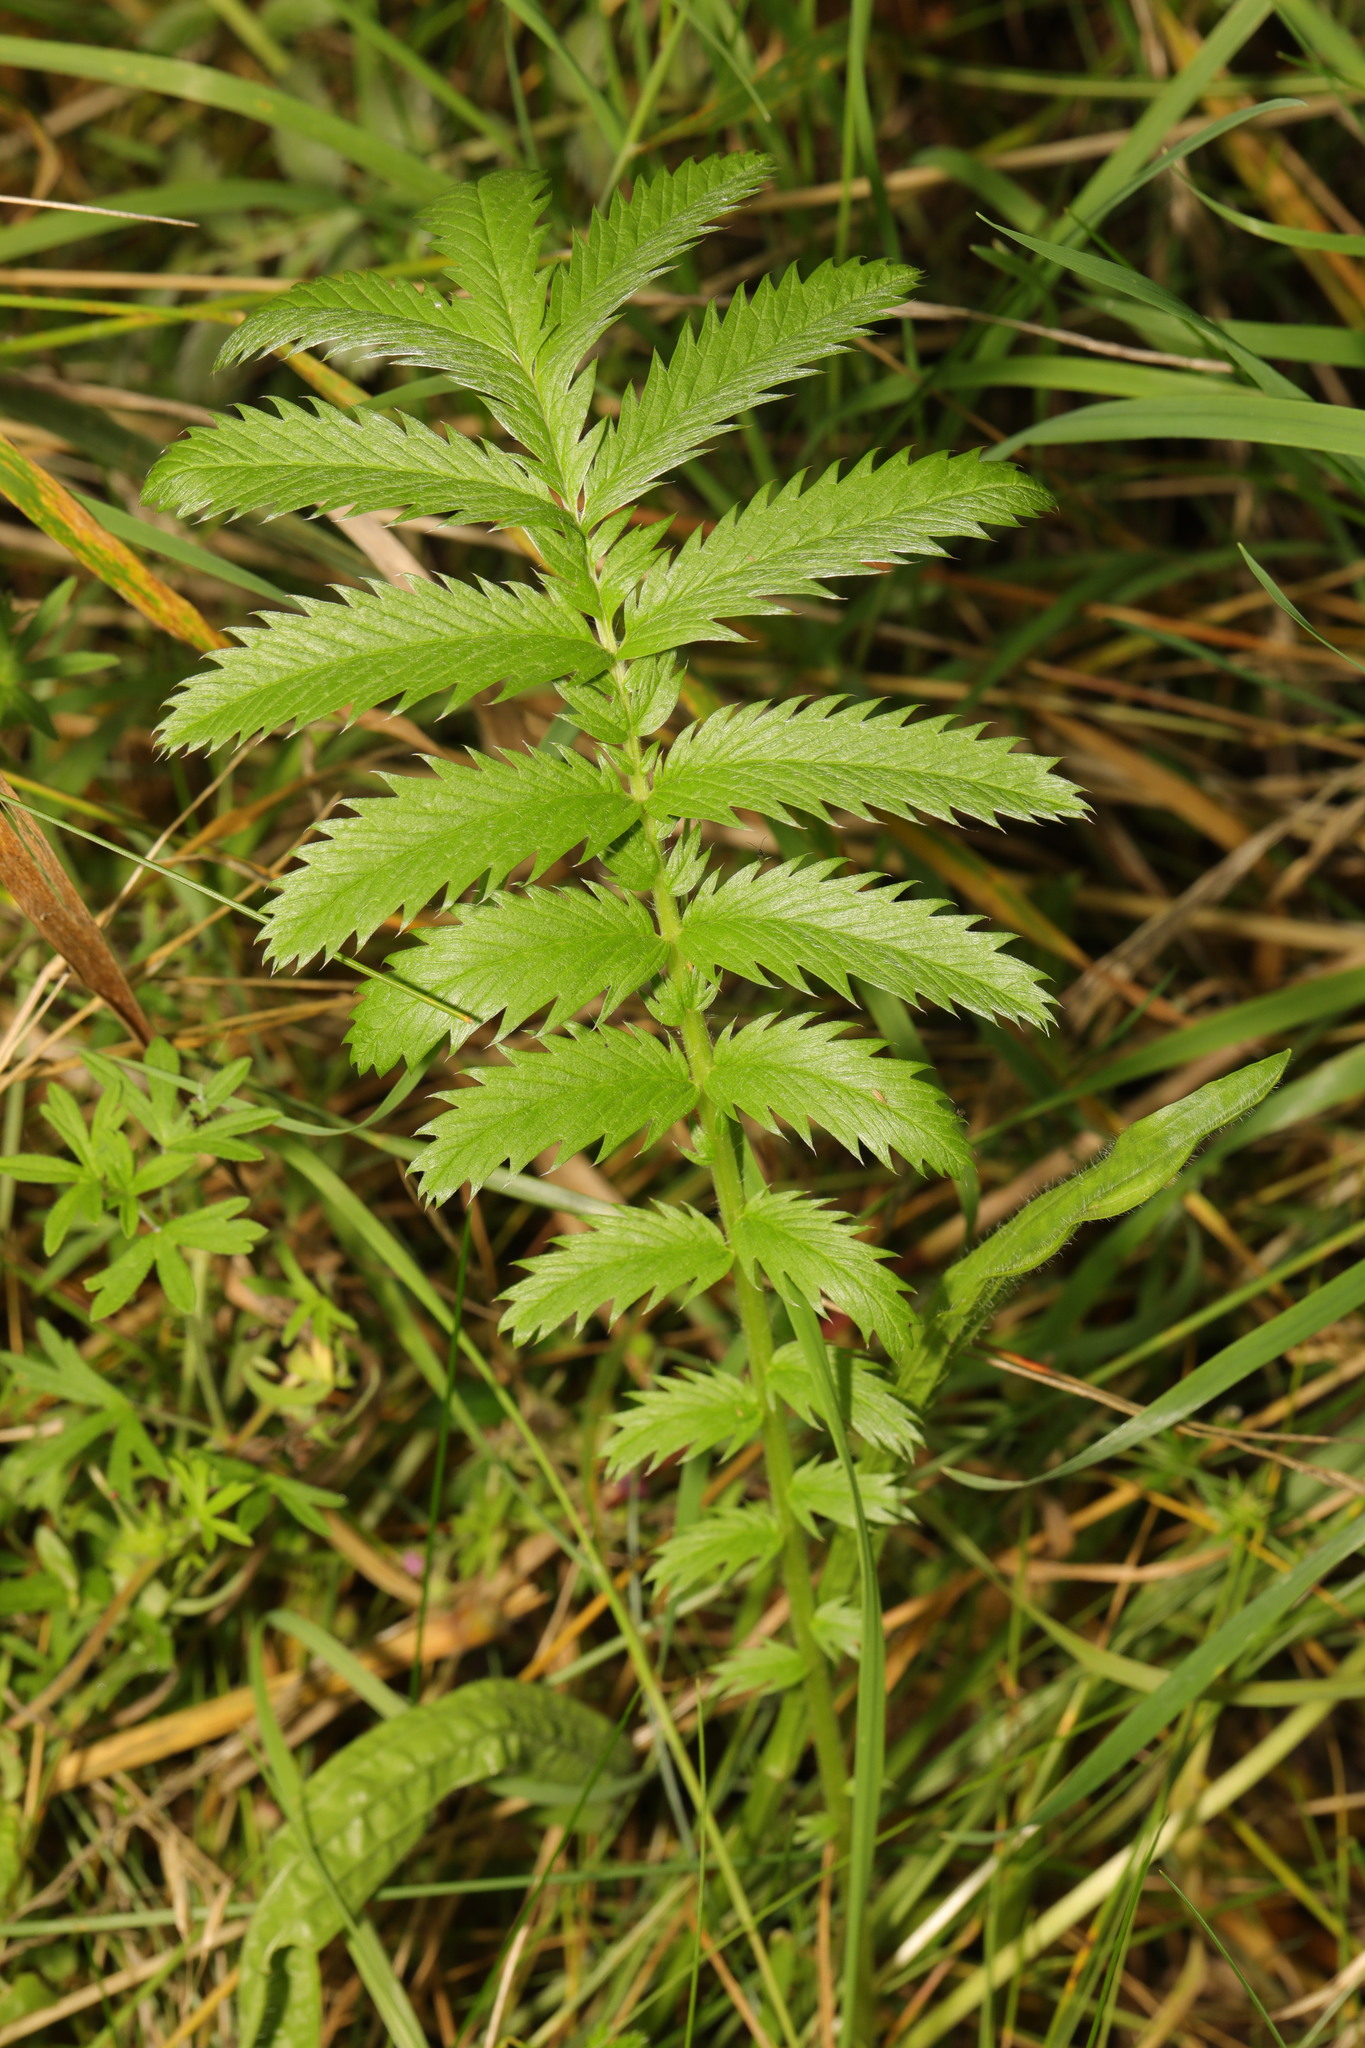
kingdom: Plantae
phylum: Tracheophyta
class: Magnoliopsida
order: Rosales
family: Rosaceae
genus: Argentina
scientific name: Argentina anserina
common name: Common silverweed
